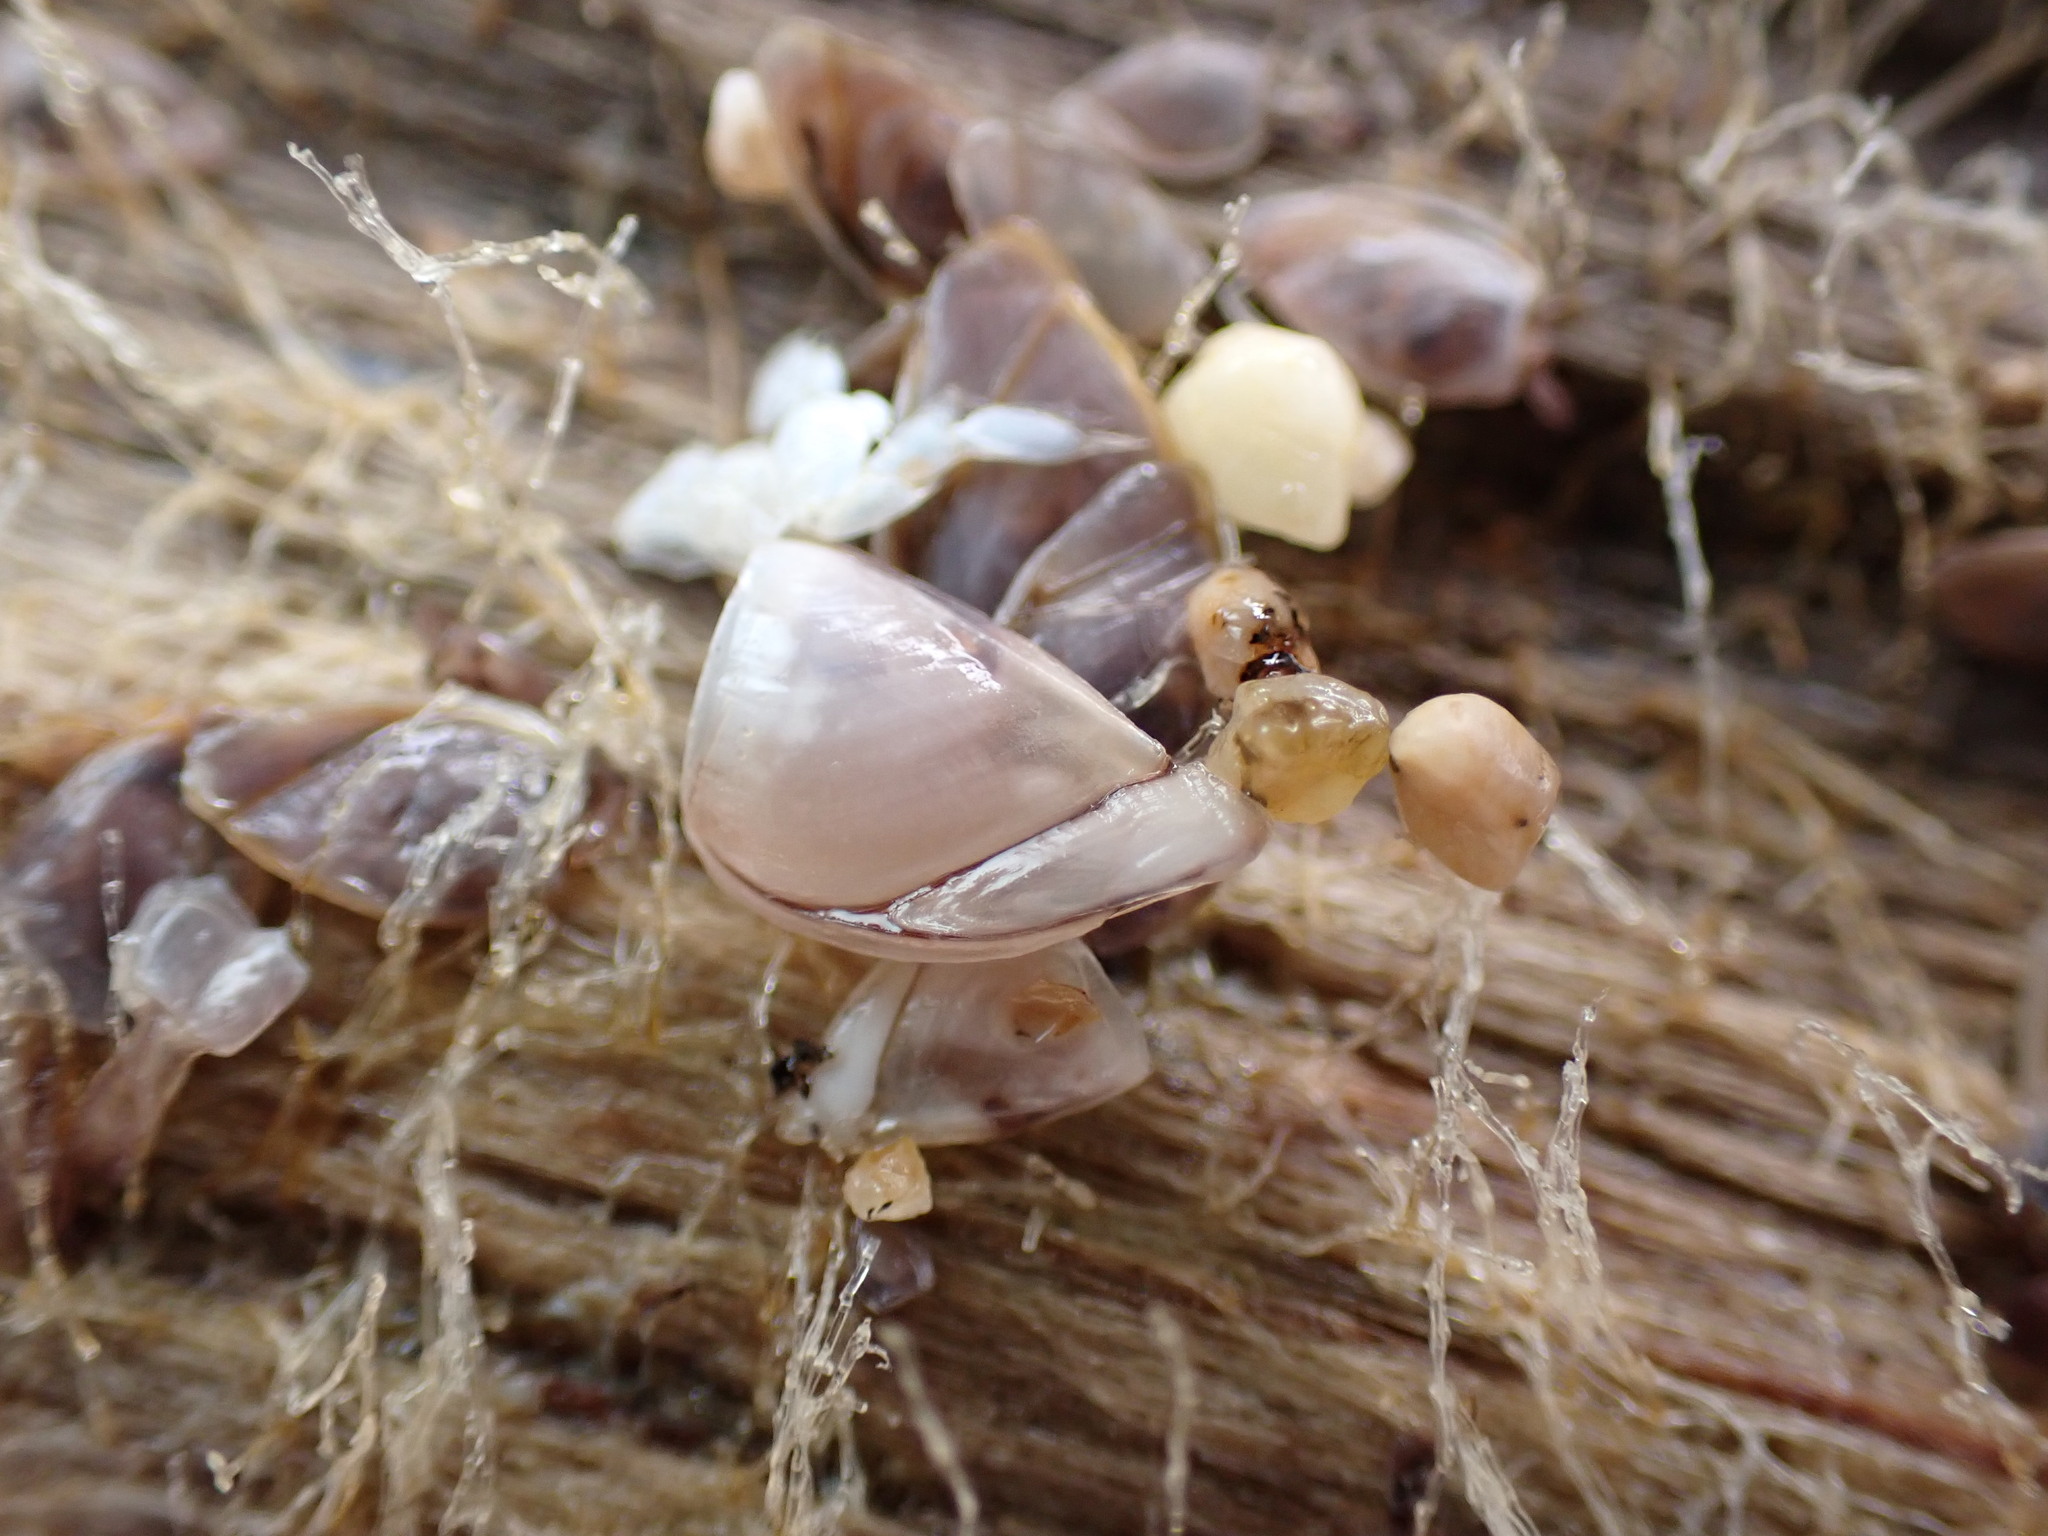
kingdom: Animalia
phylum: Arthropoda
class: Maxillopoda
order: Pedunculata
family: Lepadidae
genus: Lepas
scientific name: Lepas pacifica
